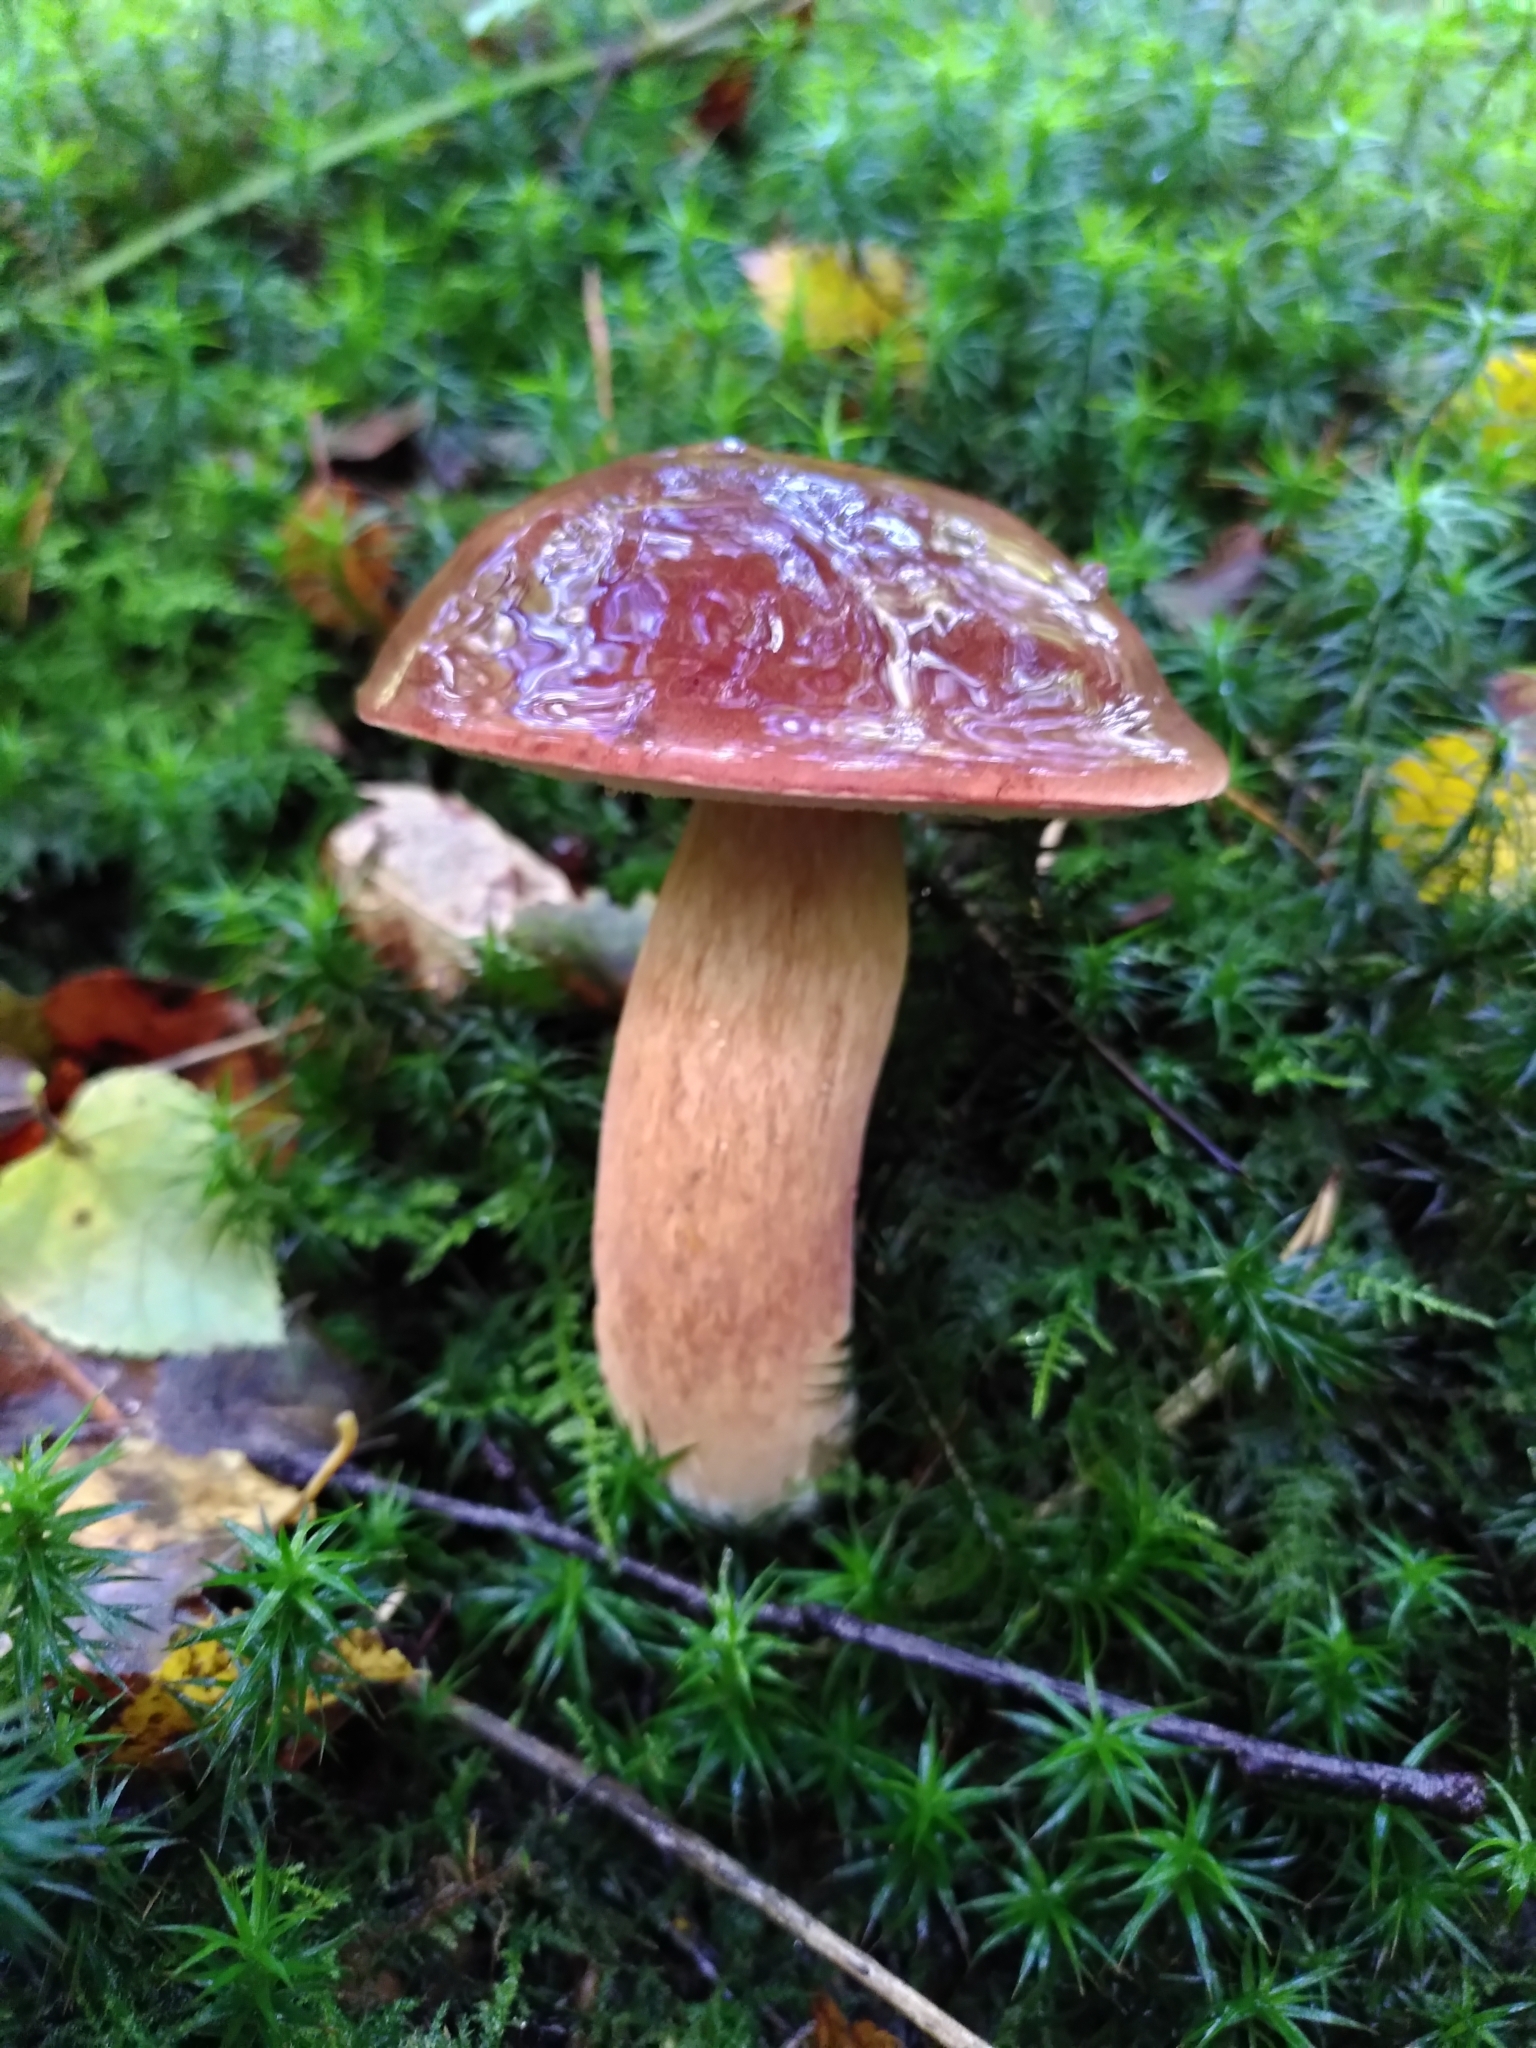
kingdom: Fungi
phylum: Basidiomycota
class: Agaricomycetes
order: Boletales
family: Boletaceae
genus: Imleria
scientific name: Imleria badia
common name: Bay bolete
